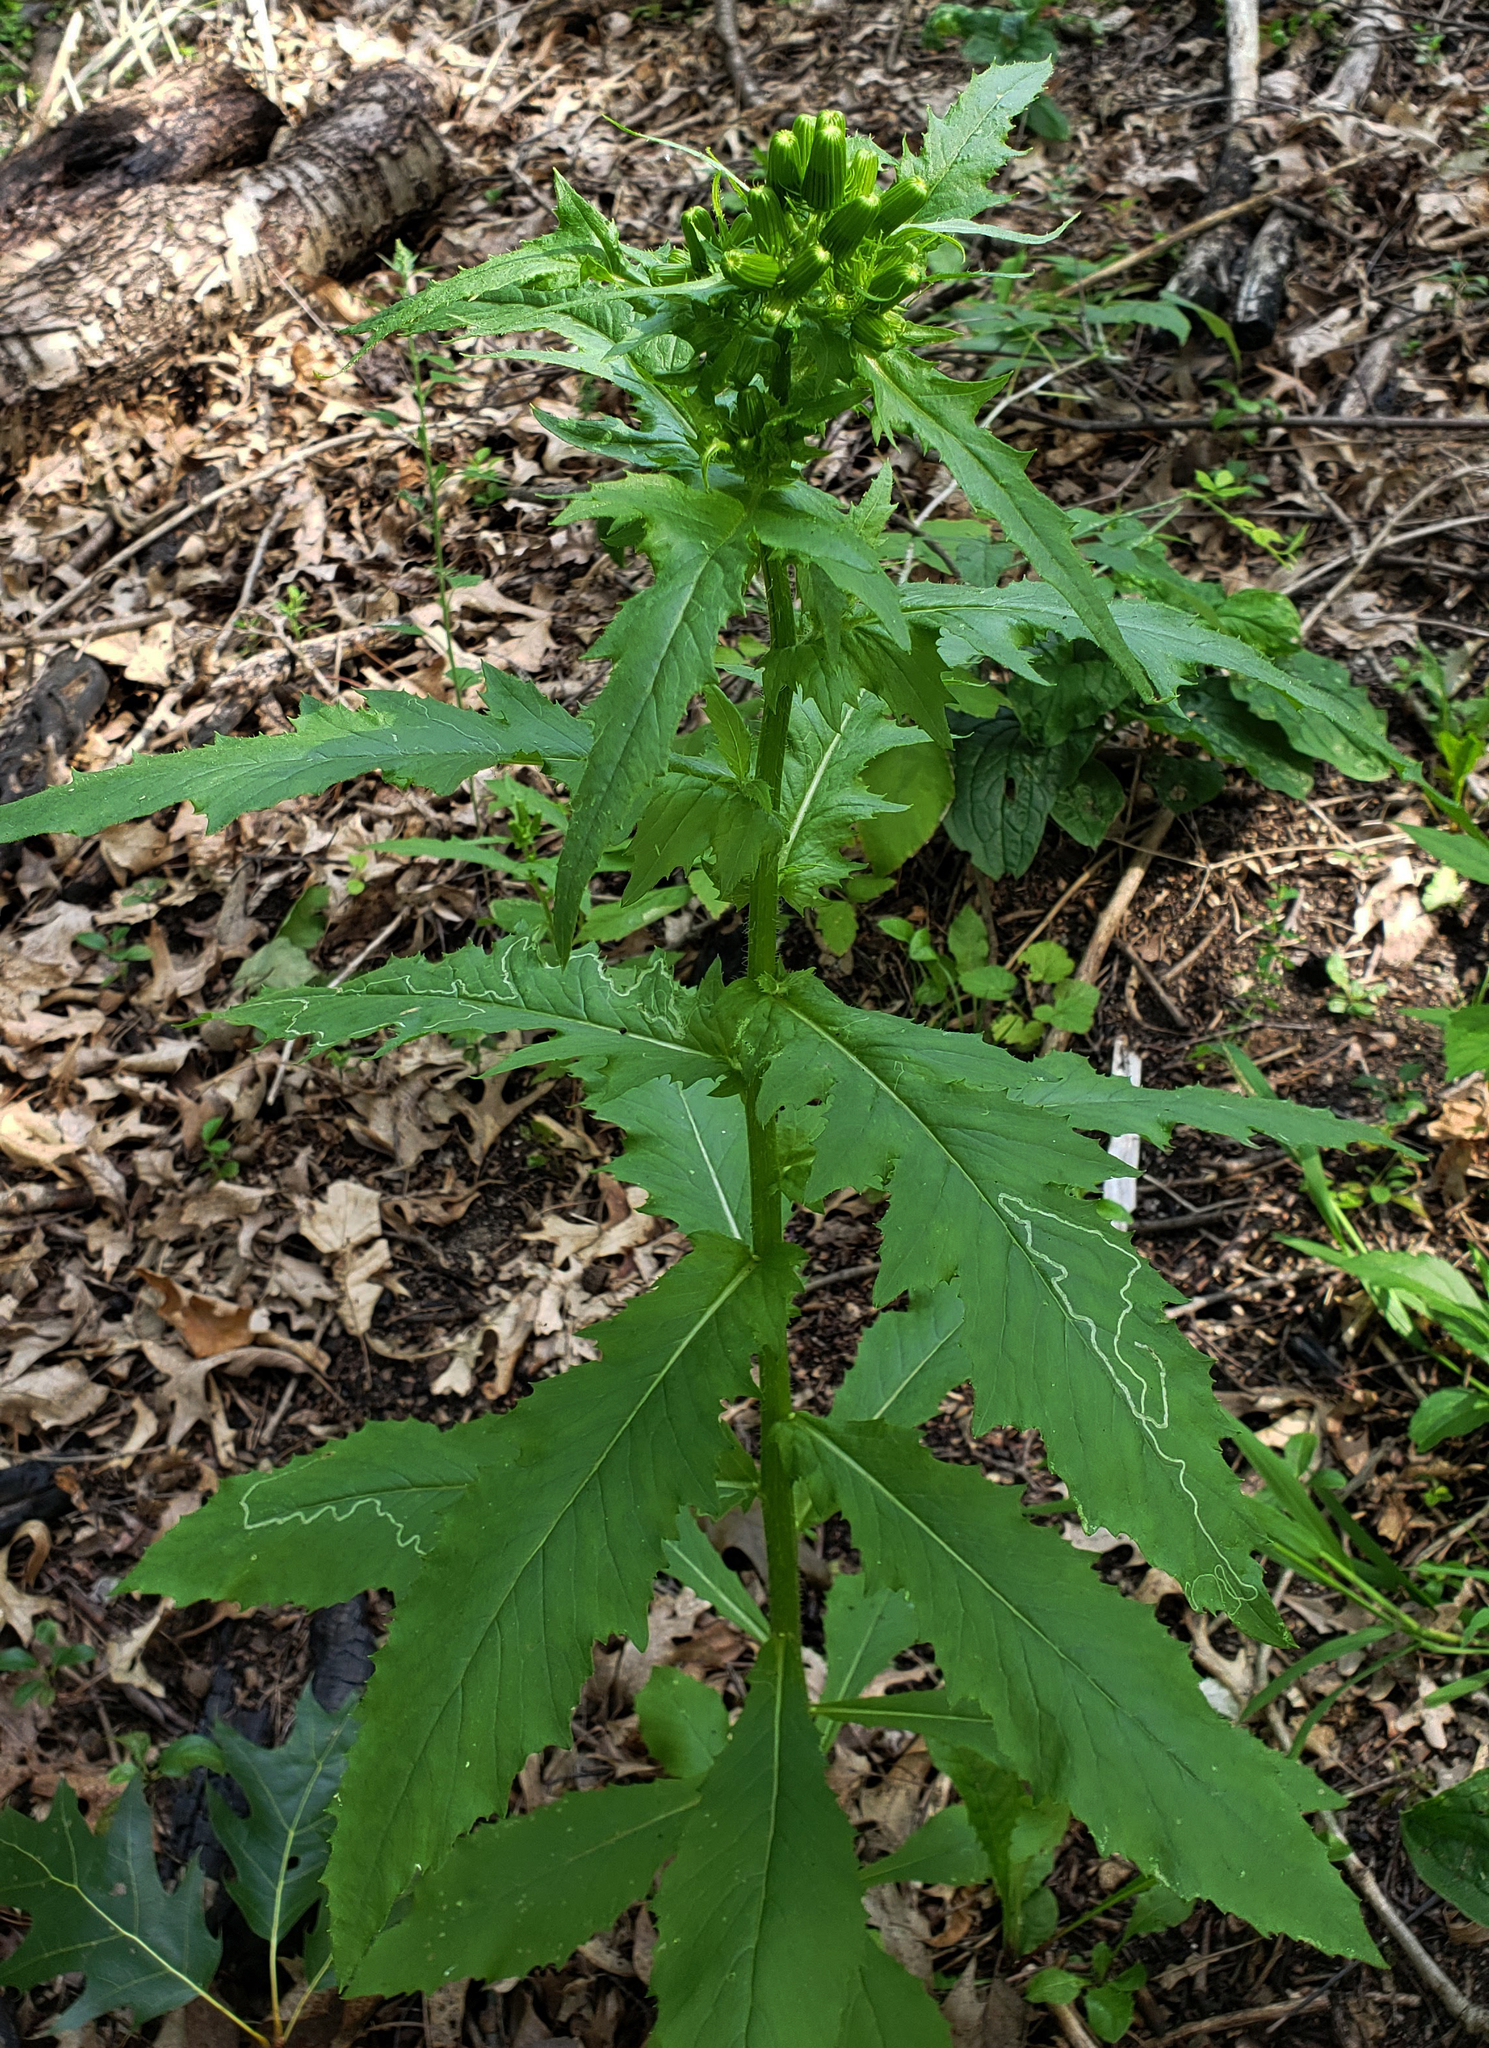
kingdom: Plantae
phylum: Tracheophyta
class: Magnoliopsida
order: Asterales
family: Asteraceae
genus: Erechtites
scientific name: Erechtites hieraciifolius
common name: American burnweed
